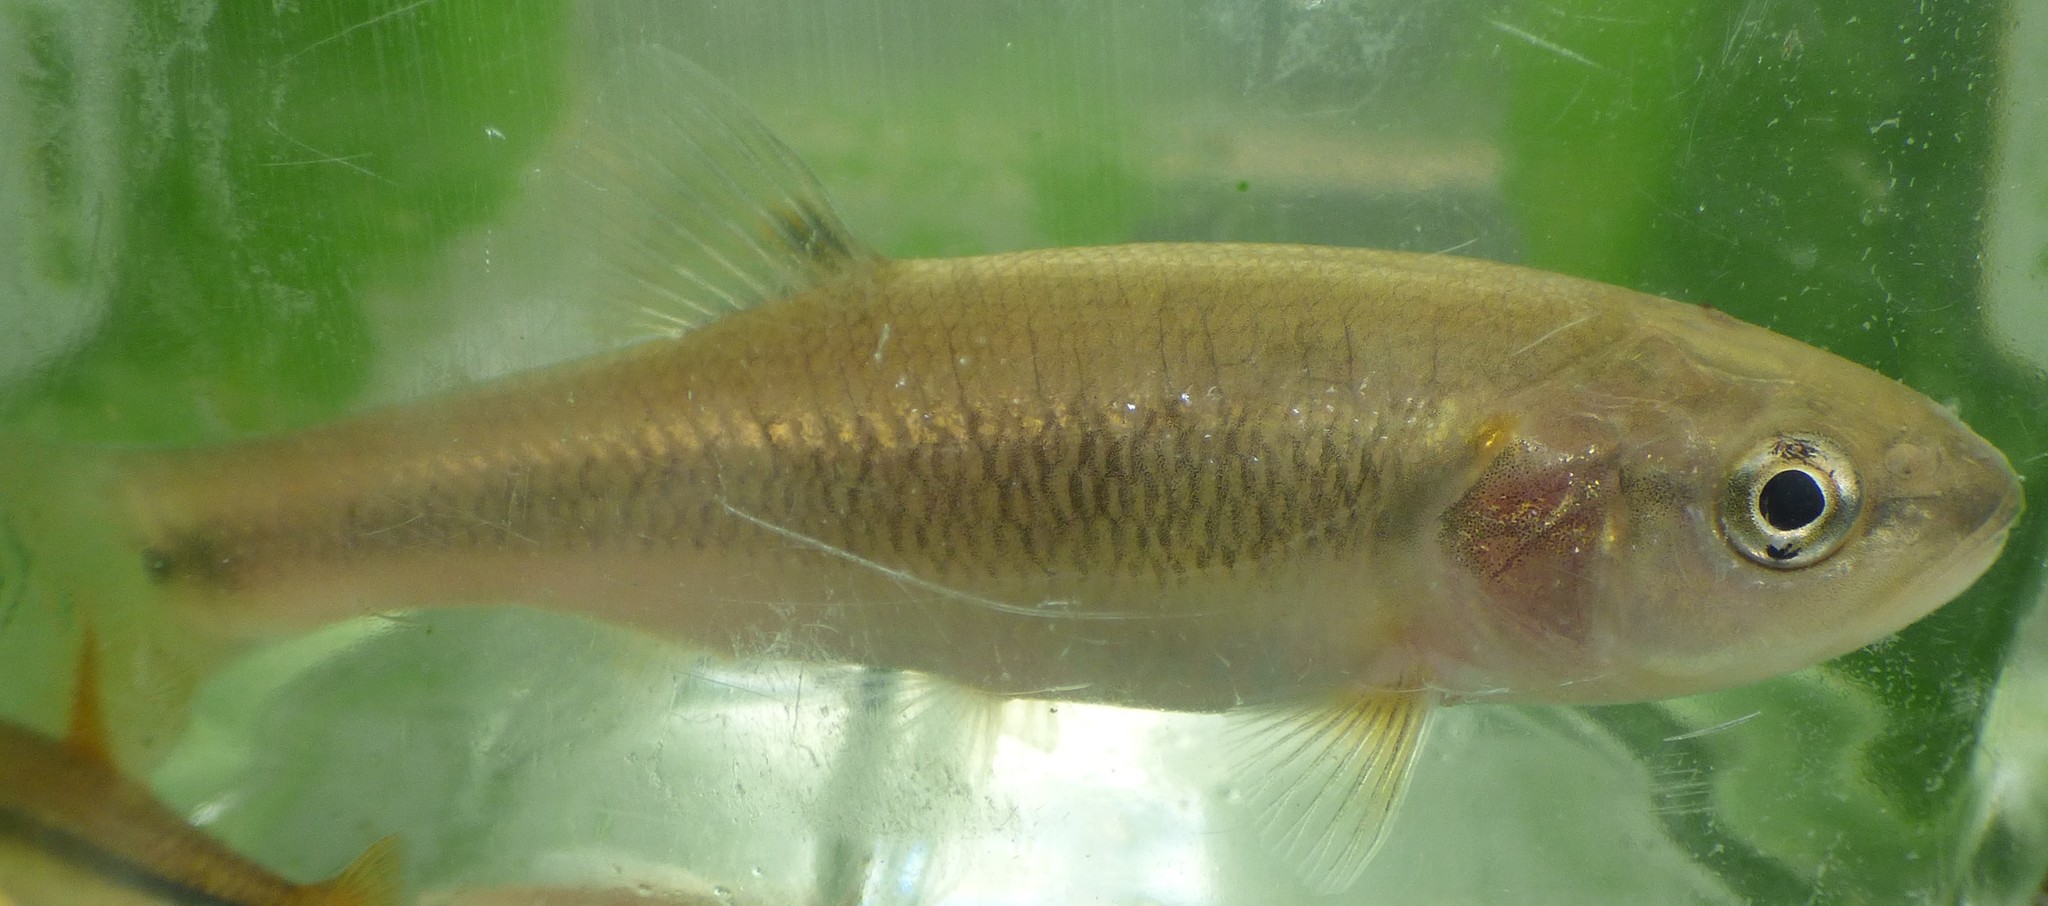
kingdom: Animalia
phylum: Chordata
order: Cypriniformes
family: Cyprinidae
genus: Semotilus
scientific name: Semotilus atromaculatus
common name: Creek chub
